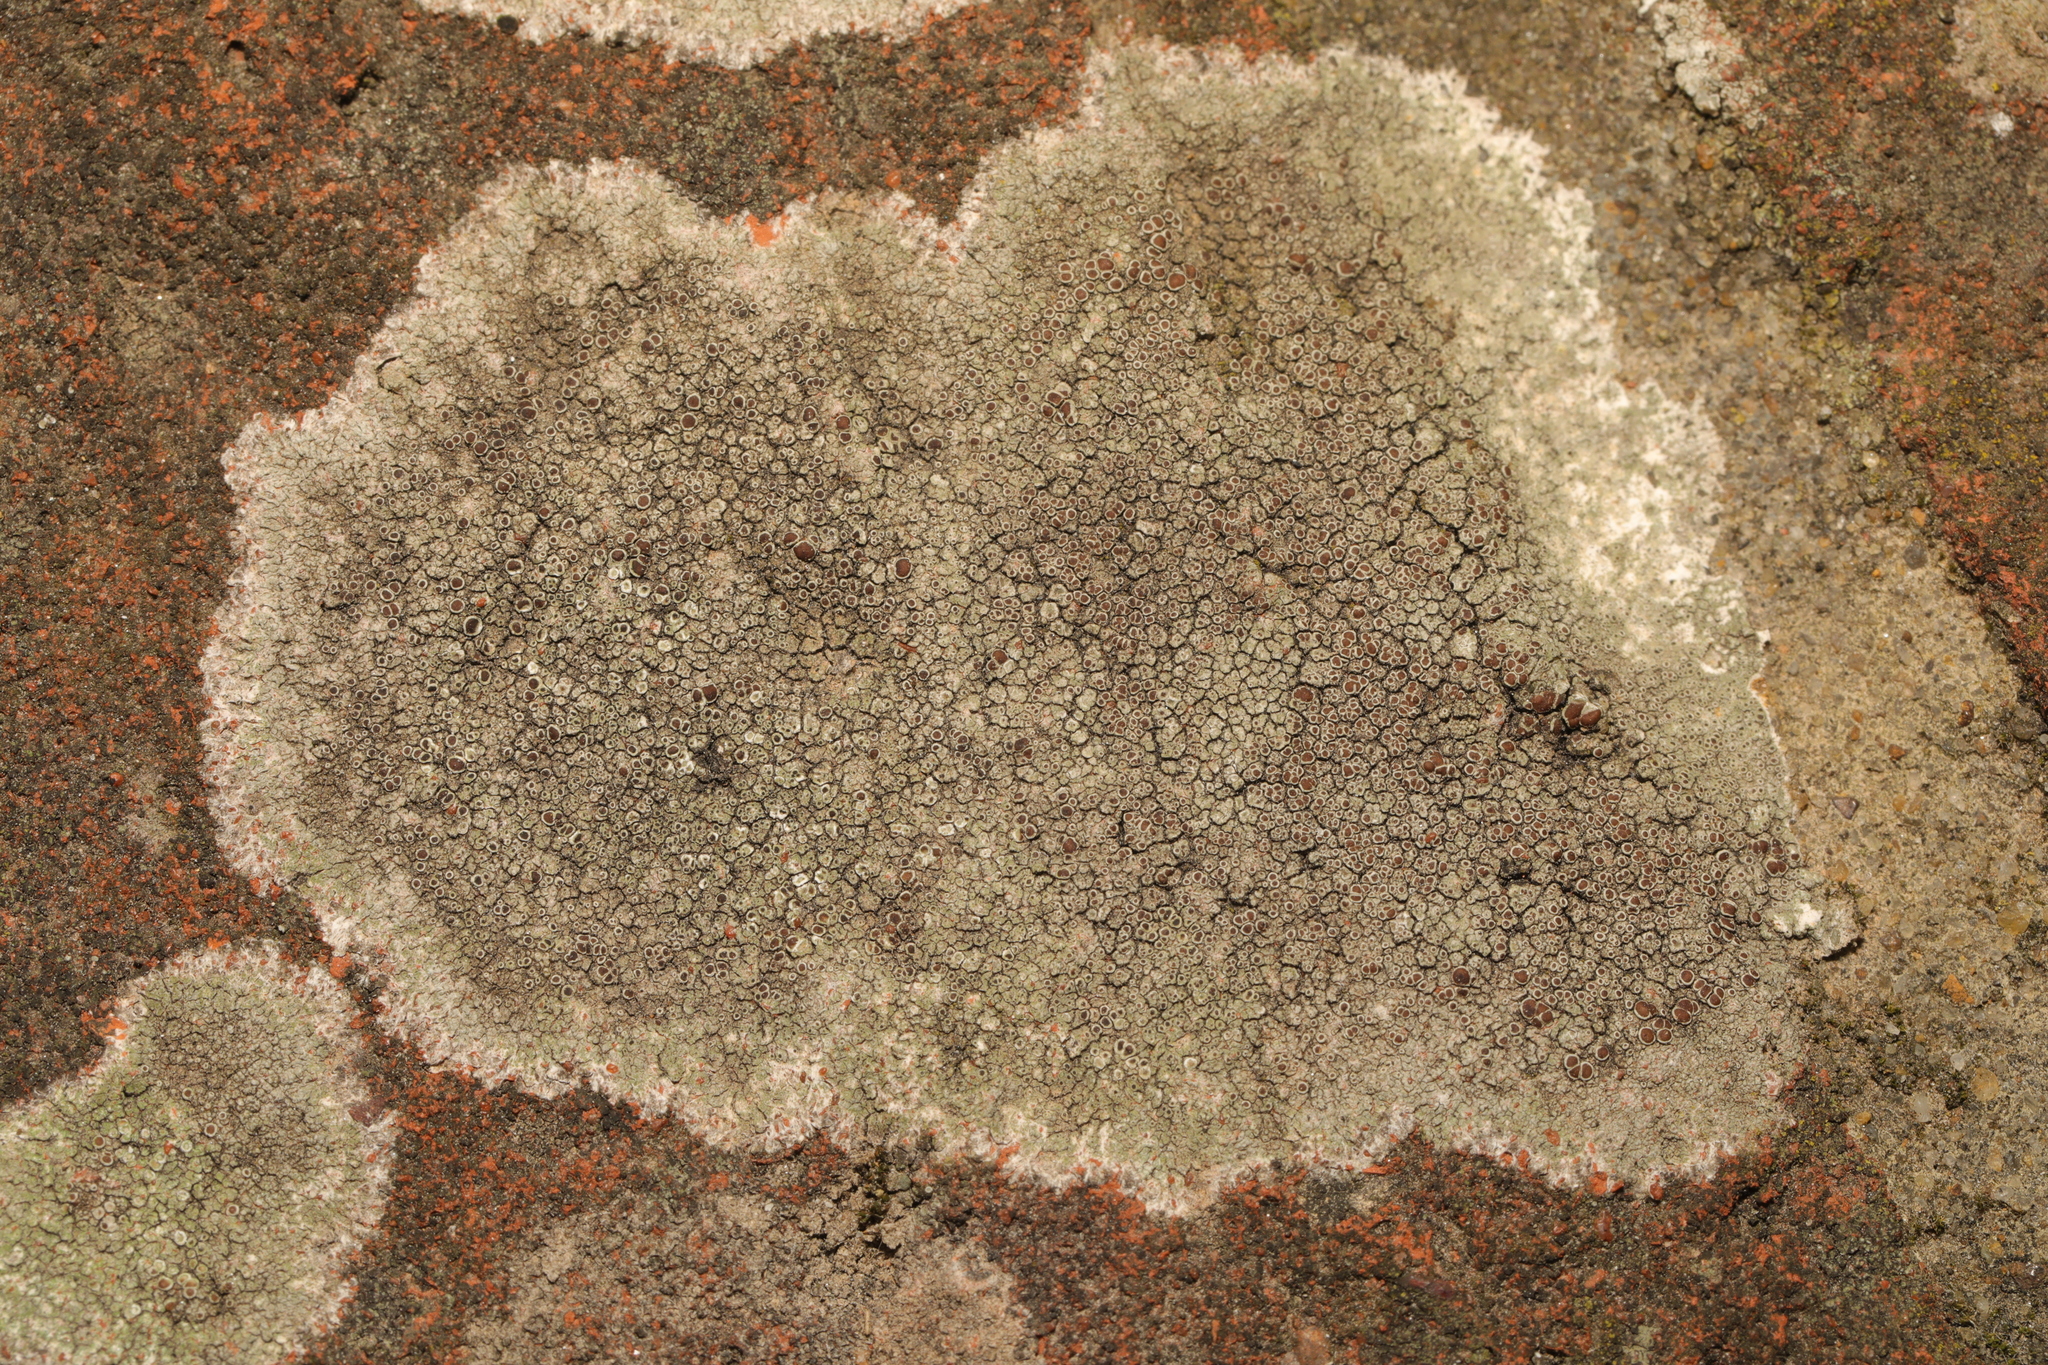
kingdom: Fungi
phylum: Ascomycota
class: Lecanoromycetes
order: Lecanorales
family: Lecanoraceae
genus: Lecanora
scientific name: Lecanora campestris
